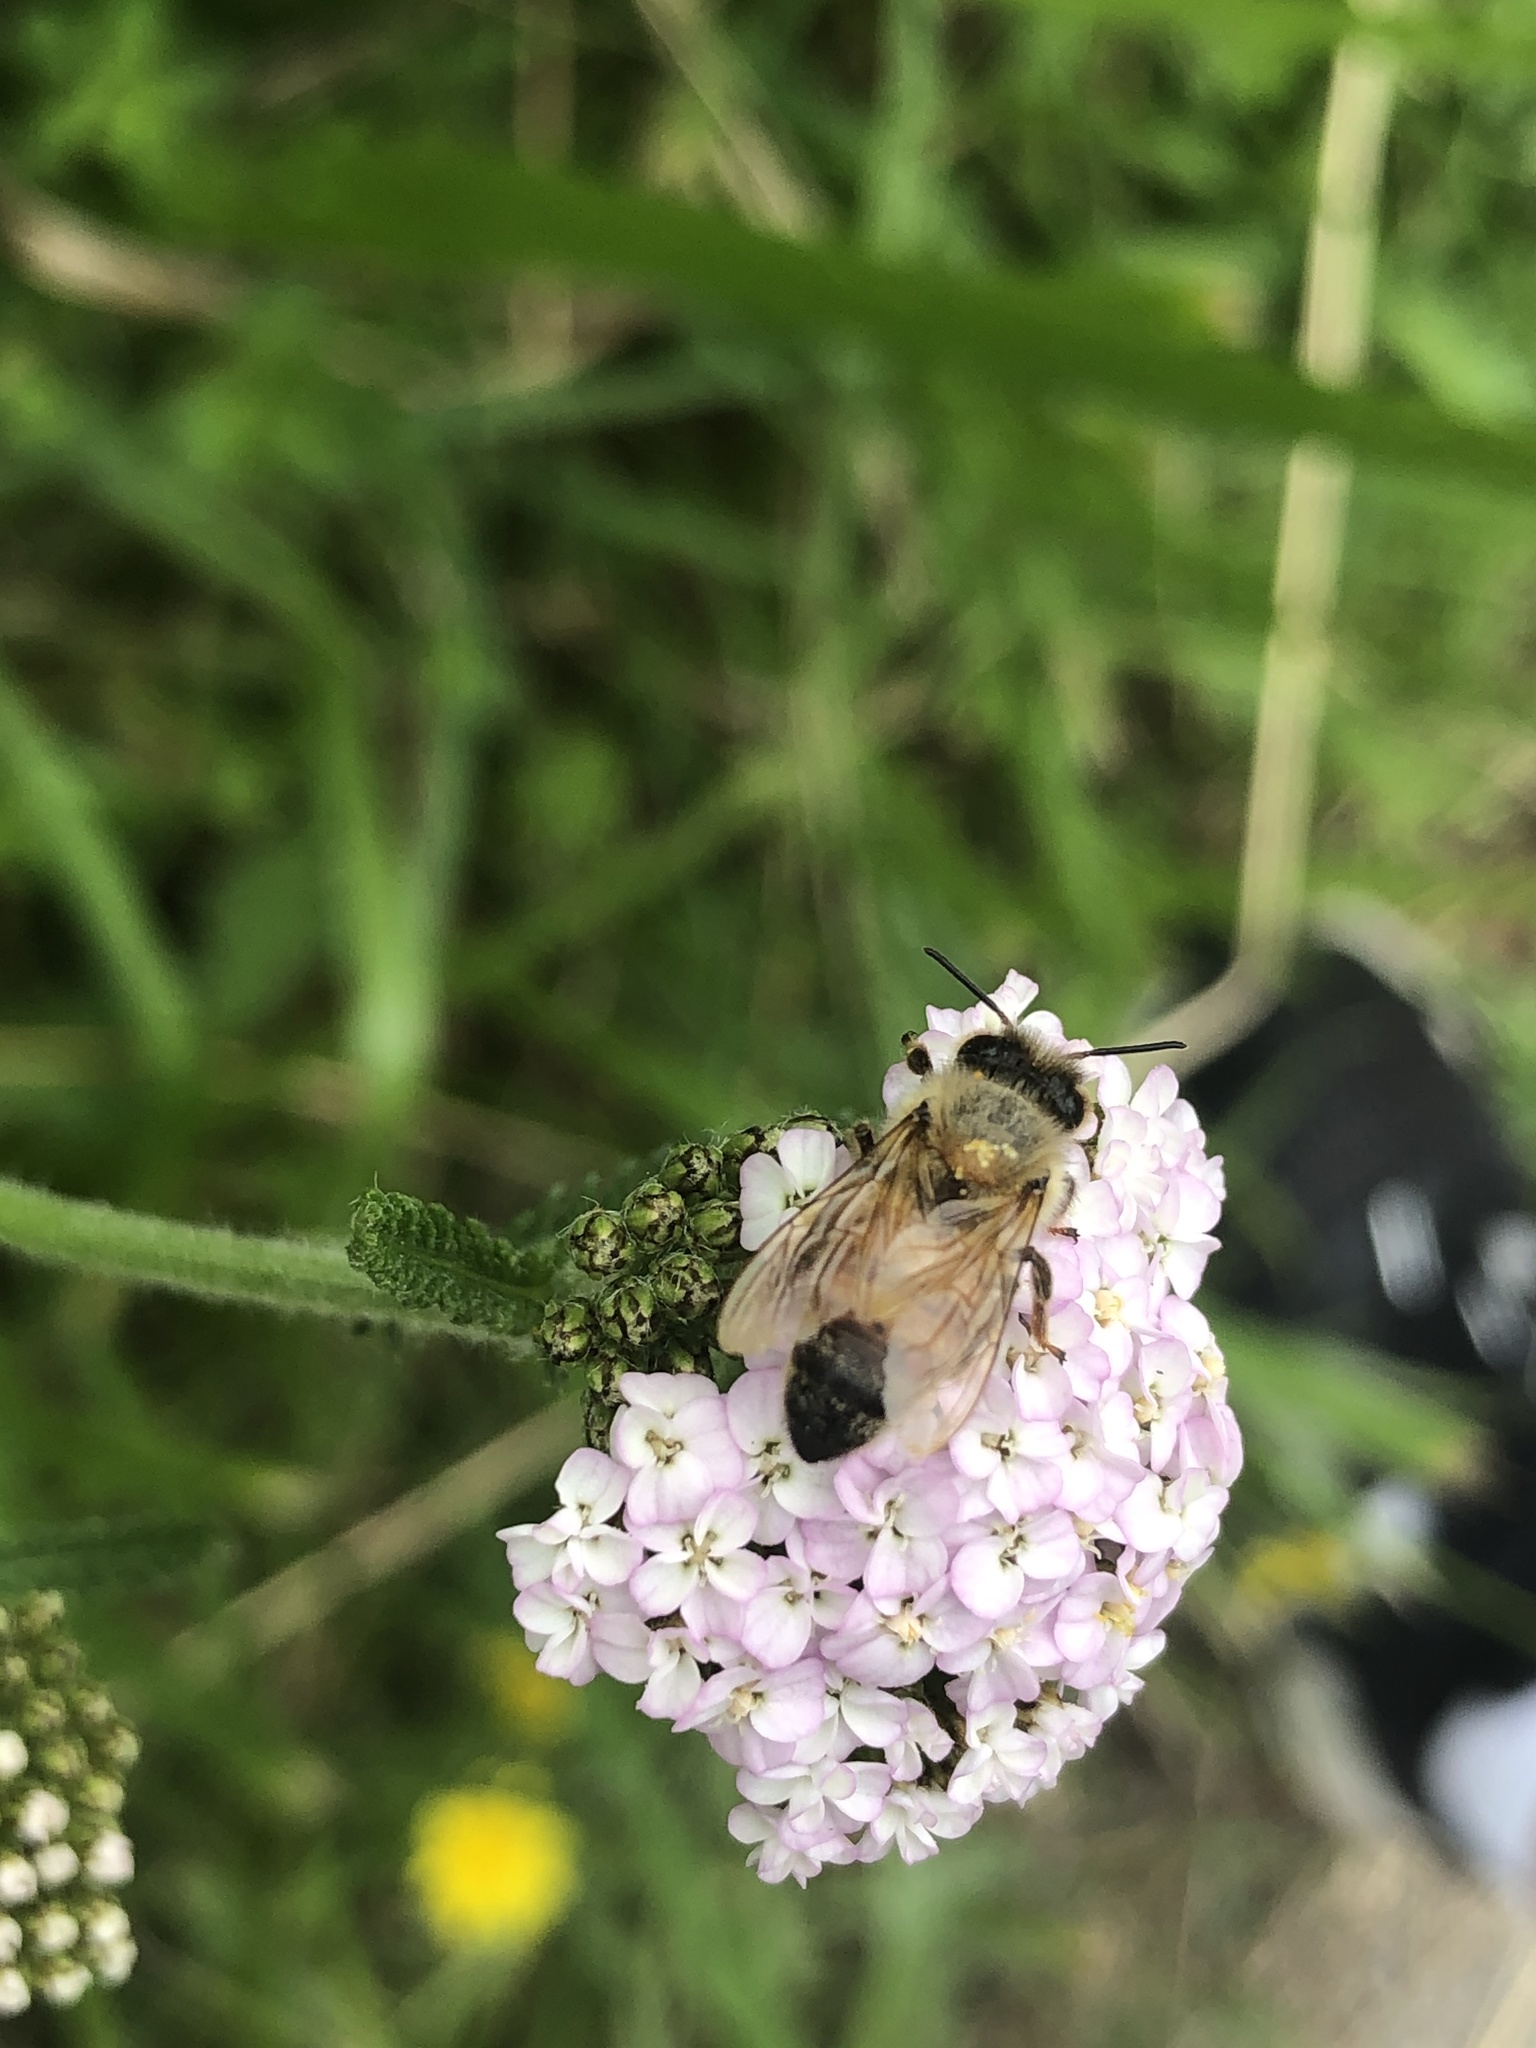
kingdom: Animalia
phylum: Arthropoda
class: Insecta
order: Hymenoptera
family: Apidae
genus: Apis
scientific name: Apis mellifera
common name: Honey bee
